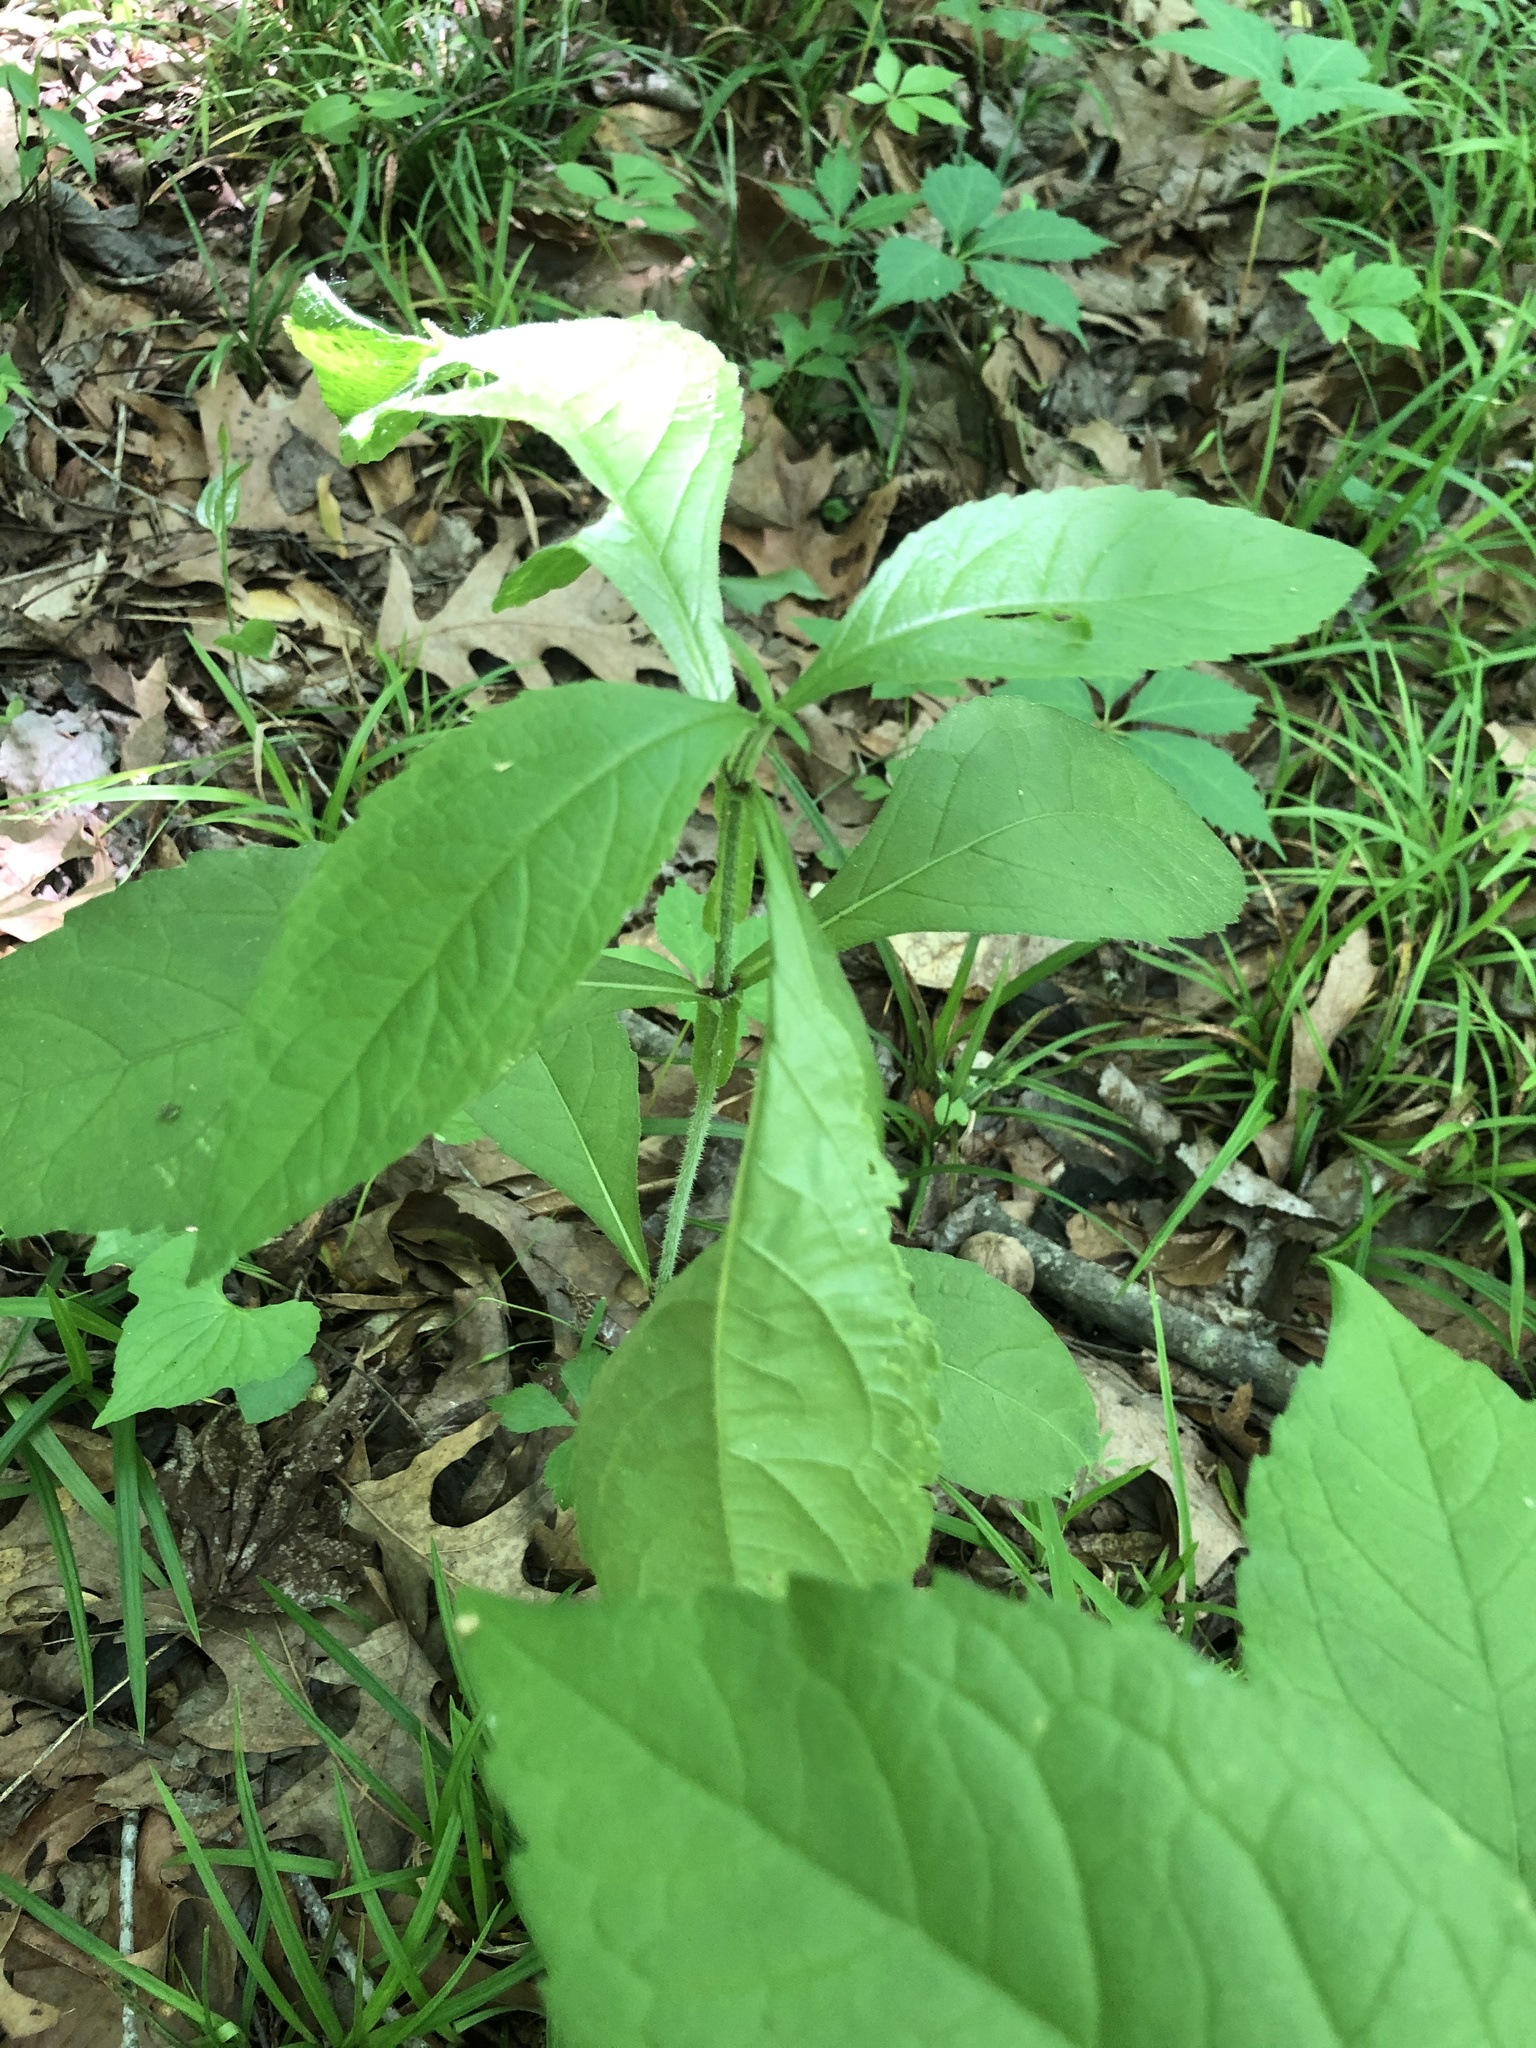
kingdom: Plantae
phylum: Tracheophyta
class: Magnoliopsida
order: Asterales
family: Asteraceae
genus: Verbesina
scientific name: Verbesina alternifolia
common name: Wingstem
